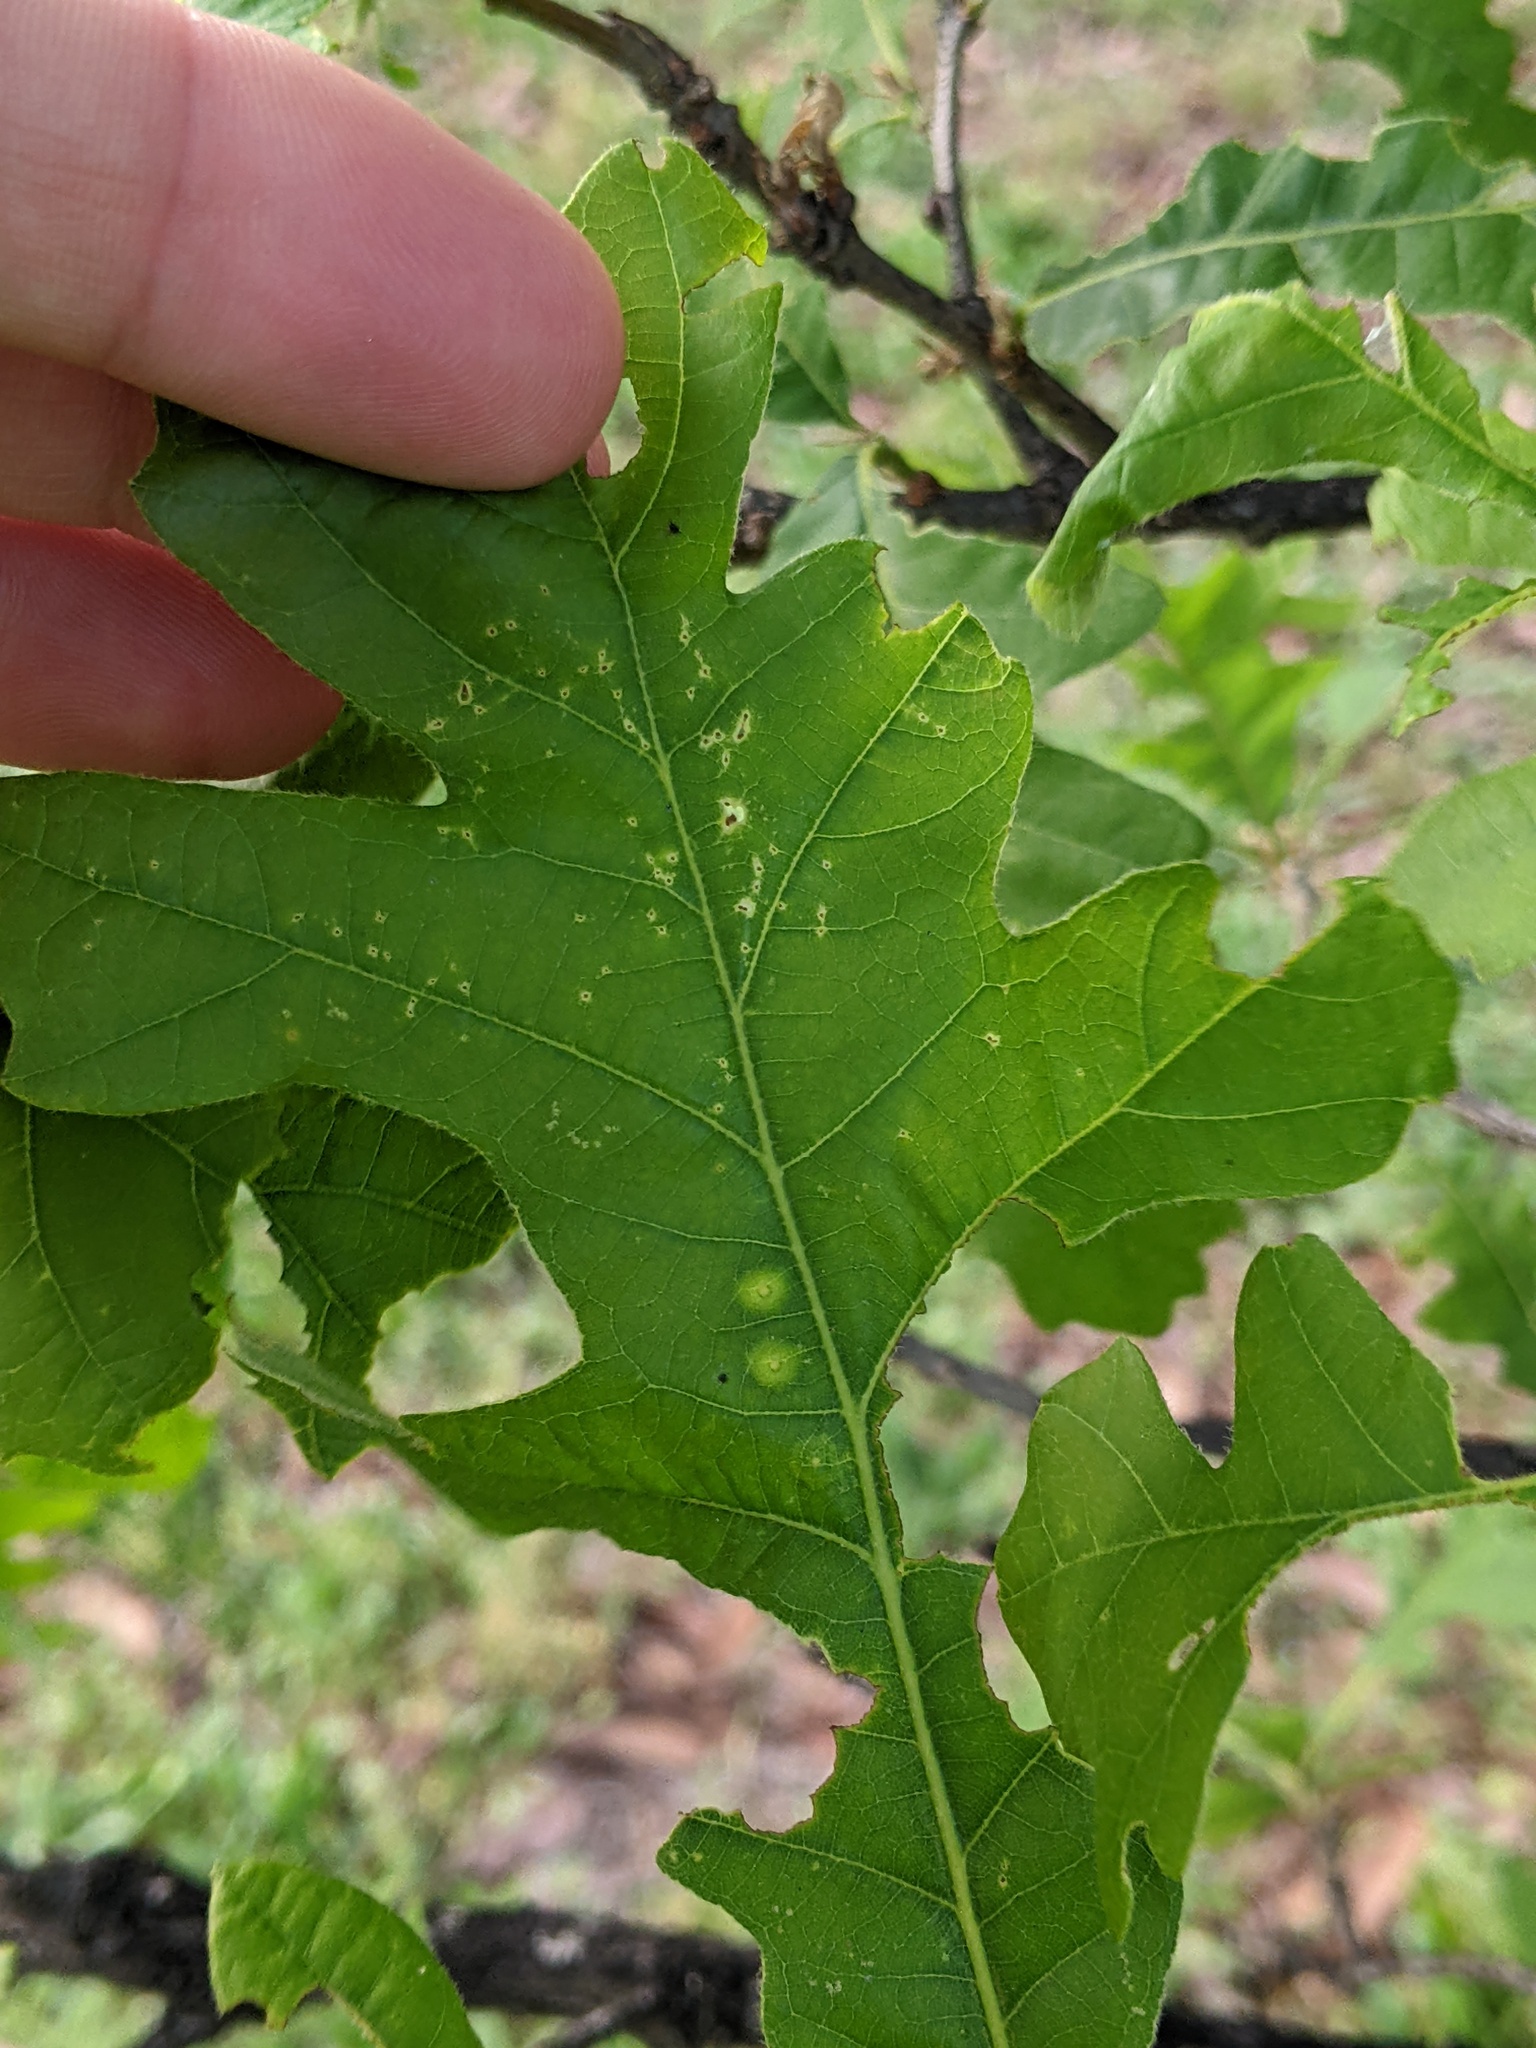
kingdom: Animalia
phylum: Arthropoda
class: Insecta
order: Hymenoptera
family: Cynipidae
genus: Neuroterus
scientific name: Neuroterus
